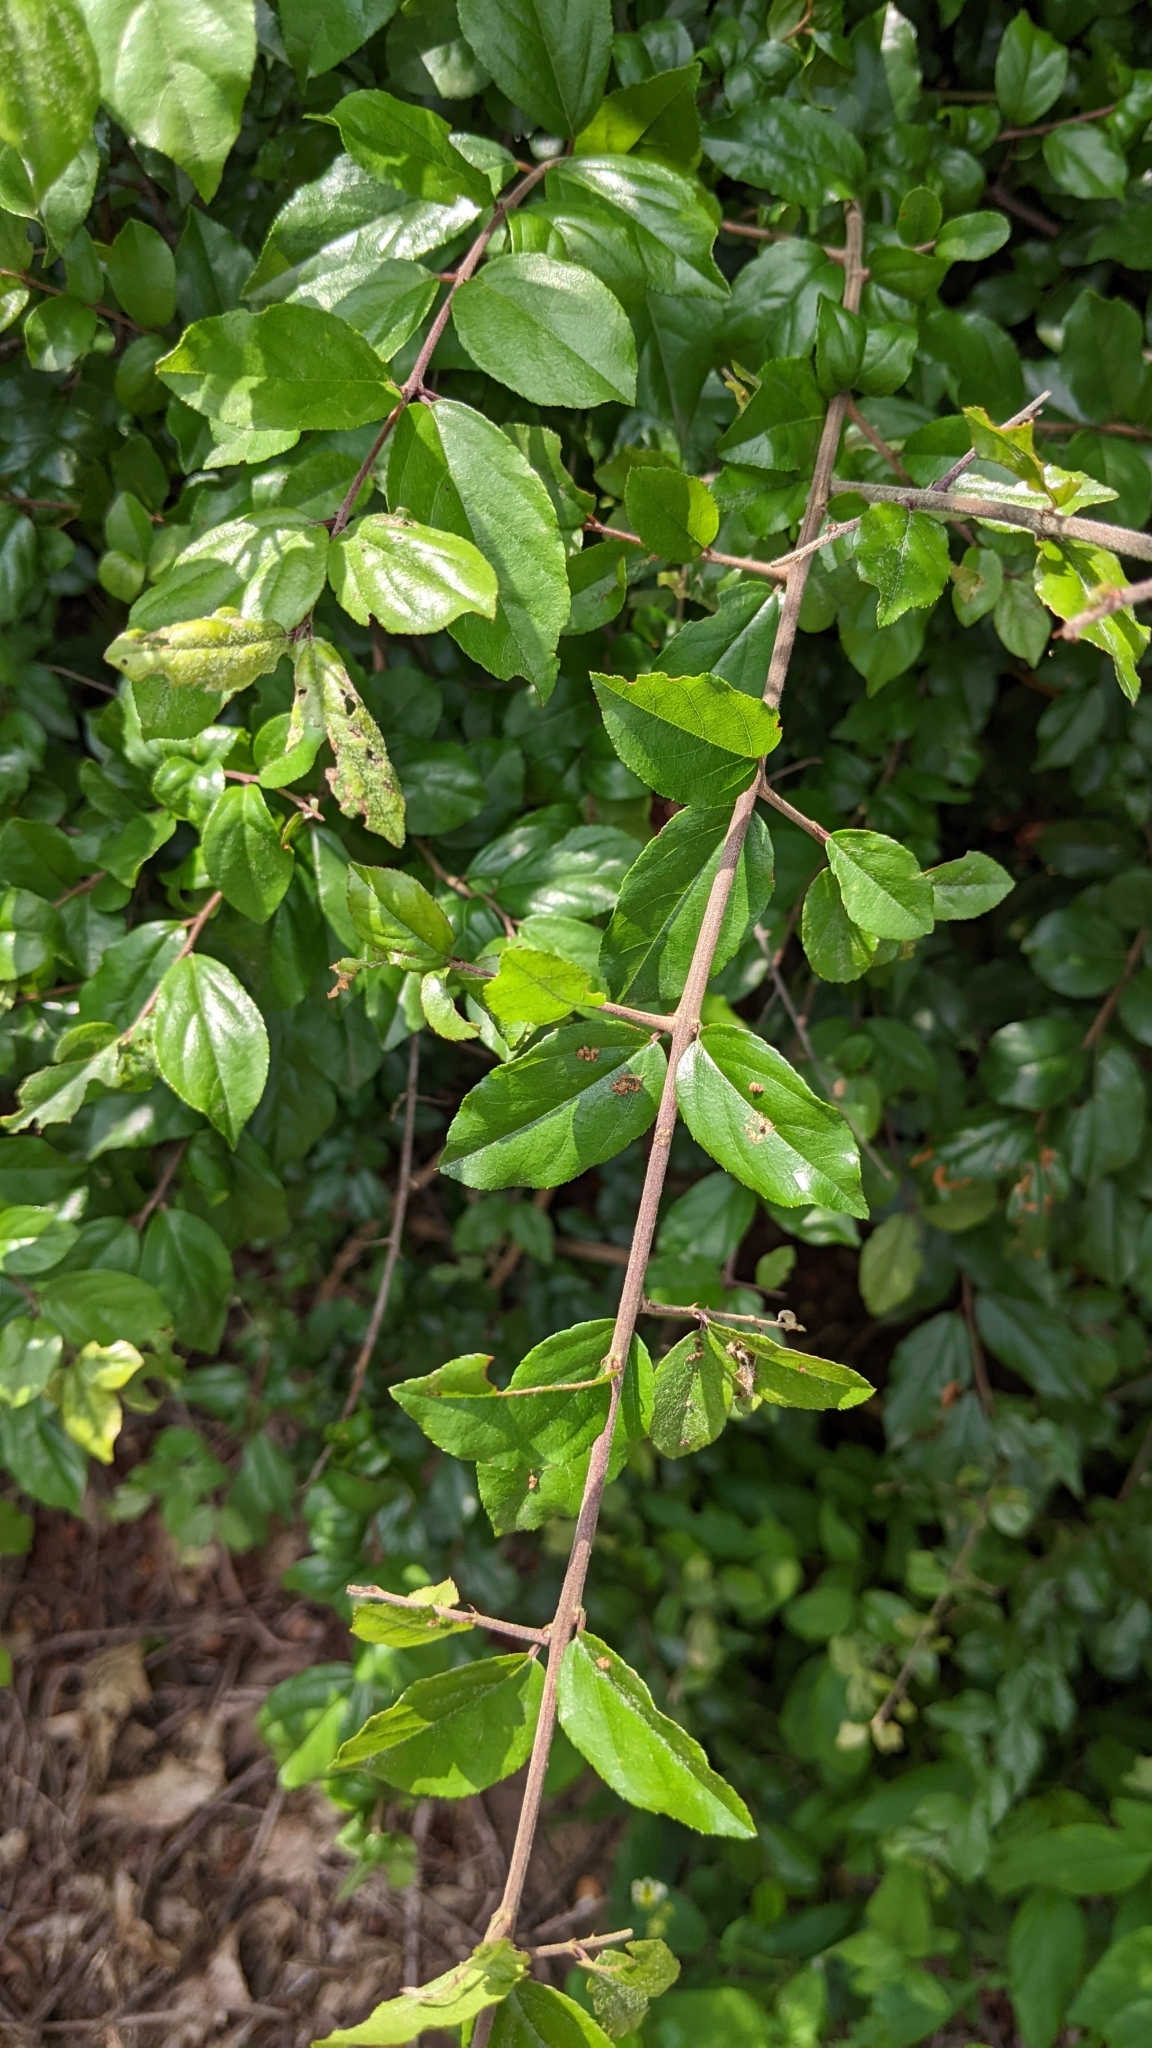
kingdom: Plantae
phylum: Tracheophyta
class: Magnoliopsida
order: Rosales
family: Rhamnaceae
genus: Sageretia
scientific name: Sageretia thea
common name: Pauper's-tea
